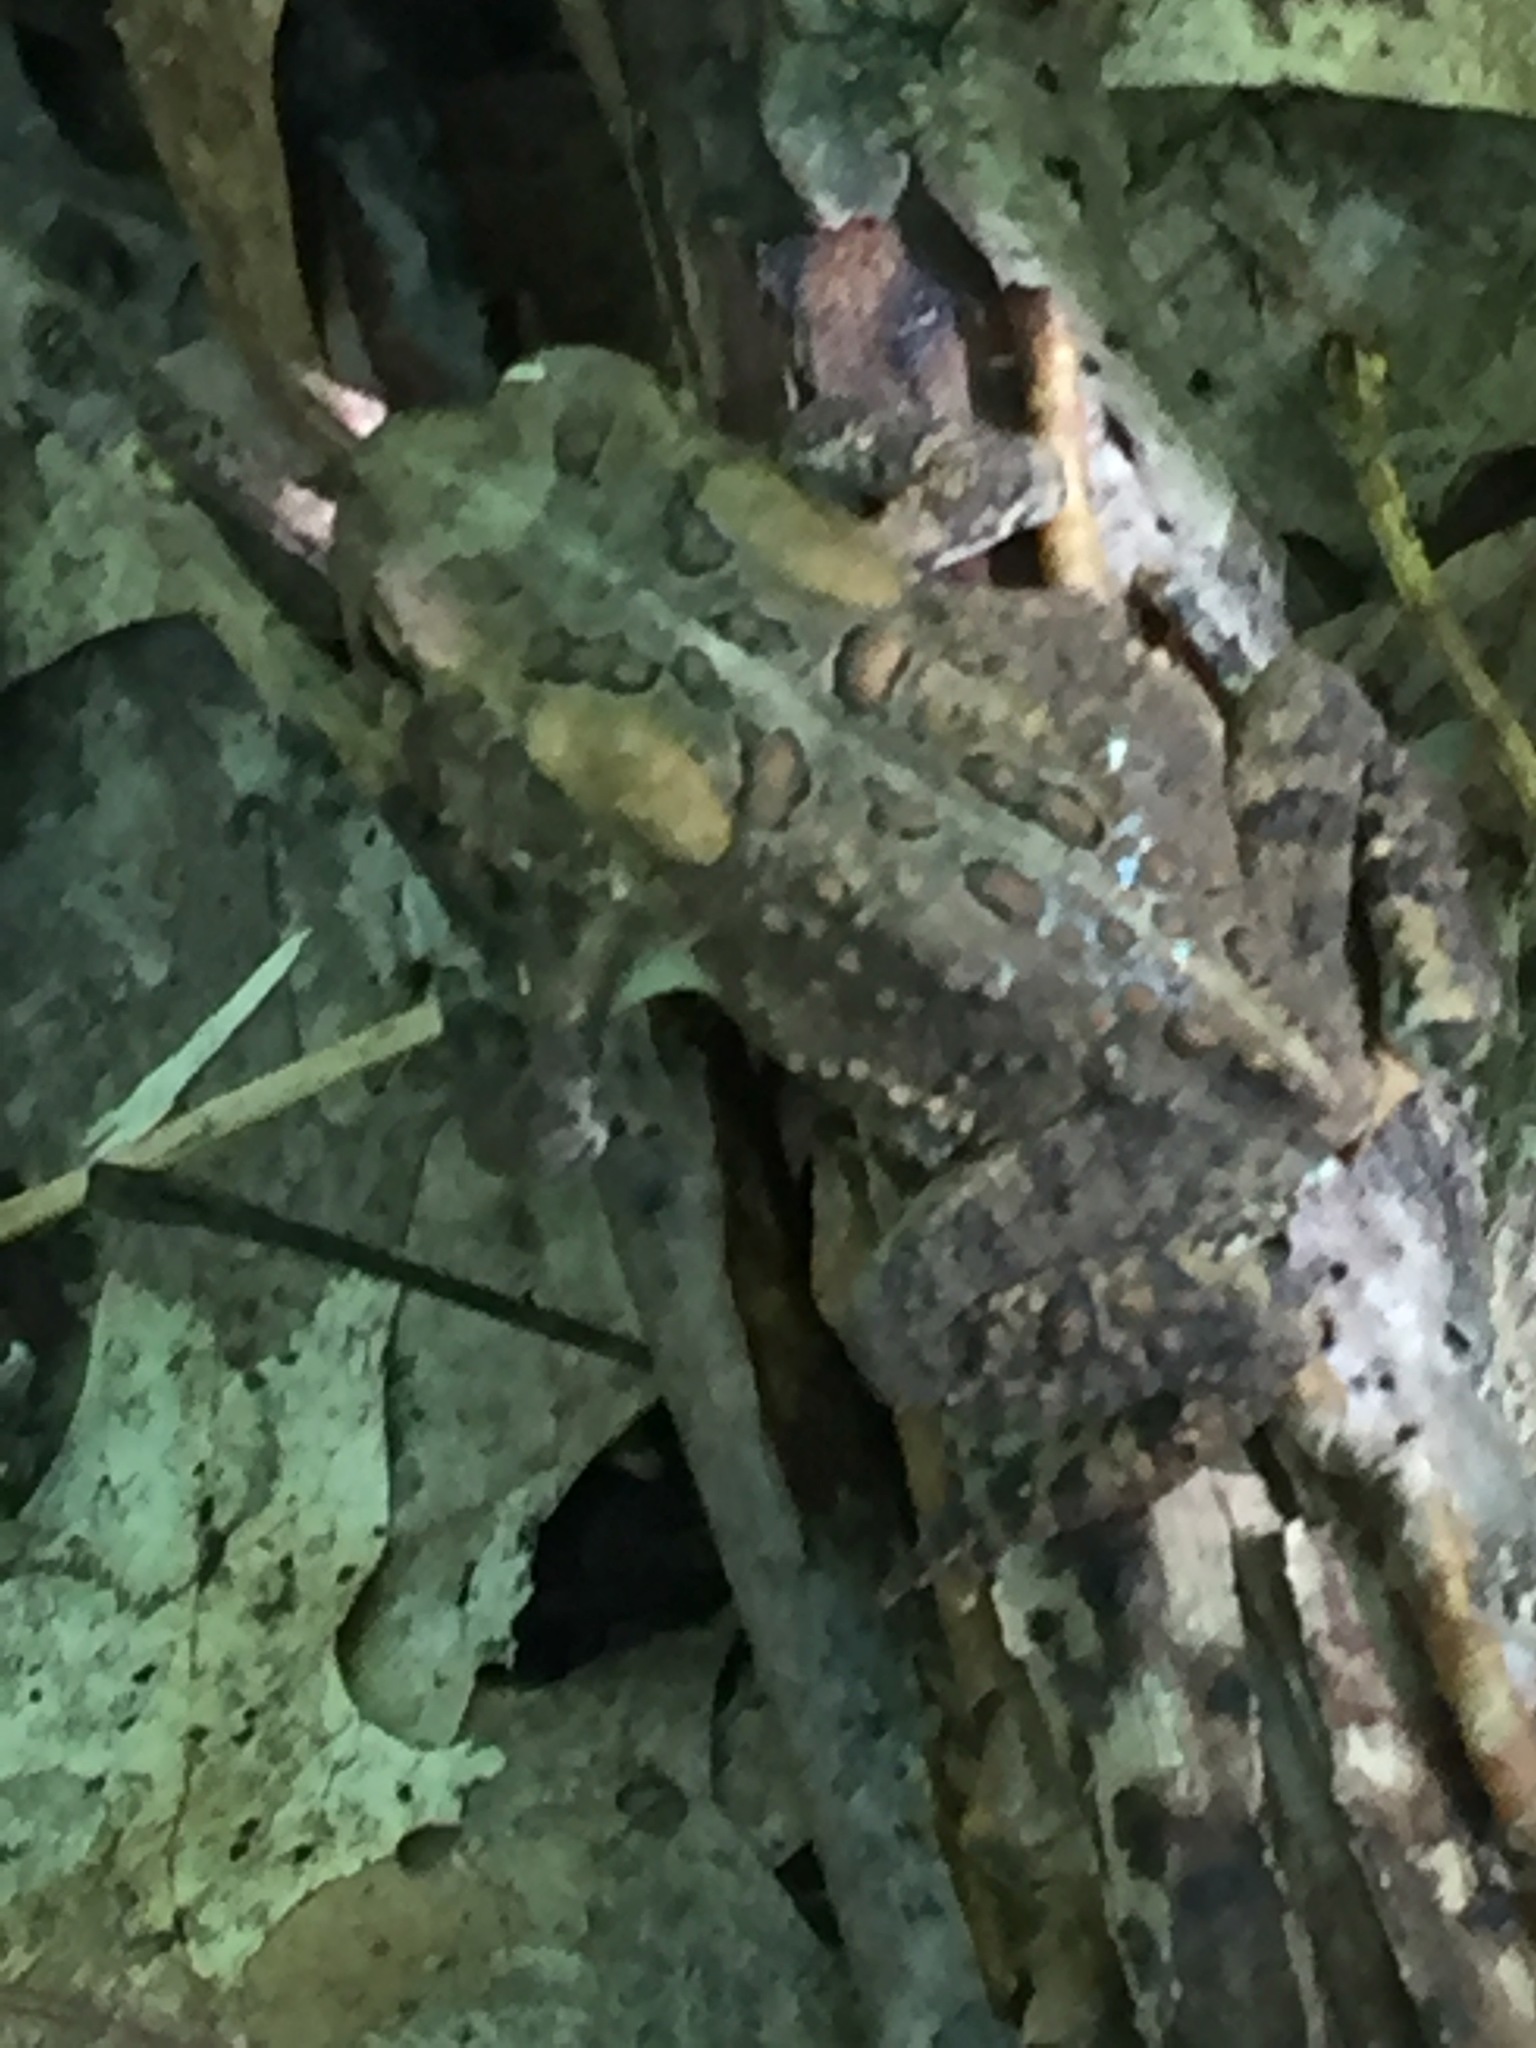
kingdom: Animalia
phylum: Chordata
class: Amphibia
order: Anura
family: Bufonidae
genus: Anaxyrus
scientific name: Anaxyrus americanus
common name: American toad
